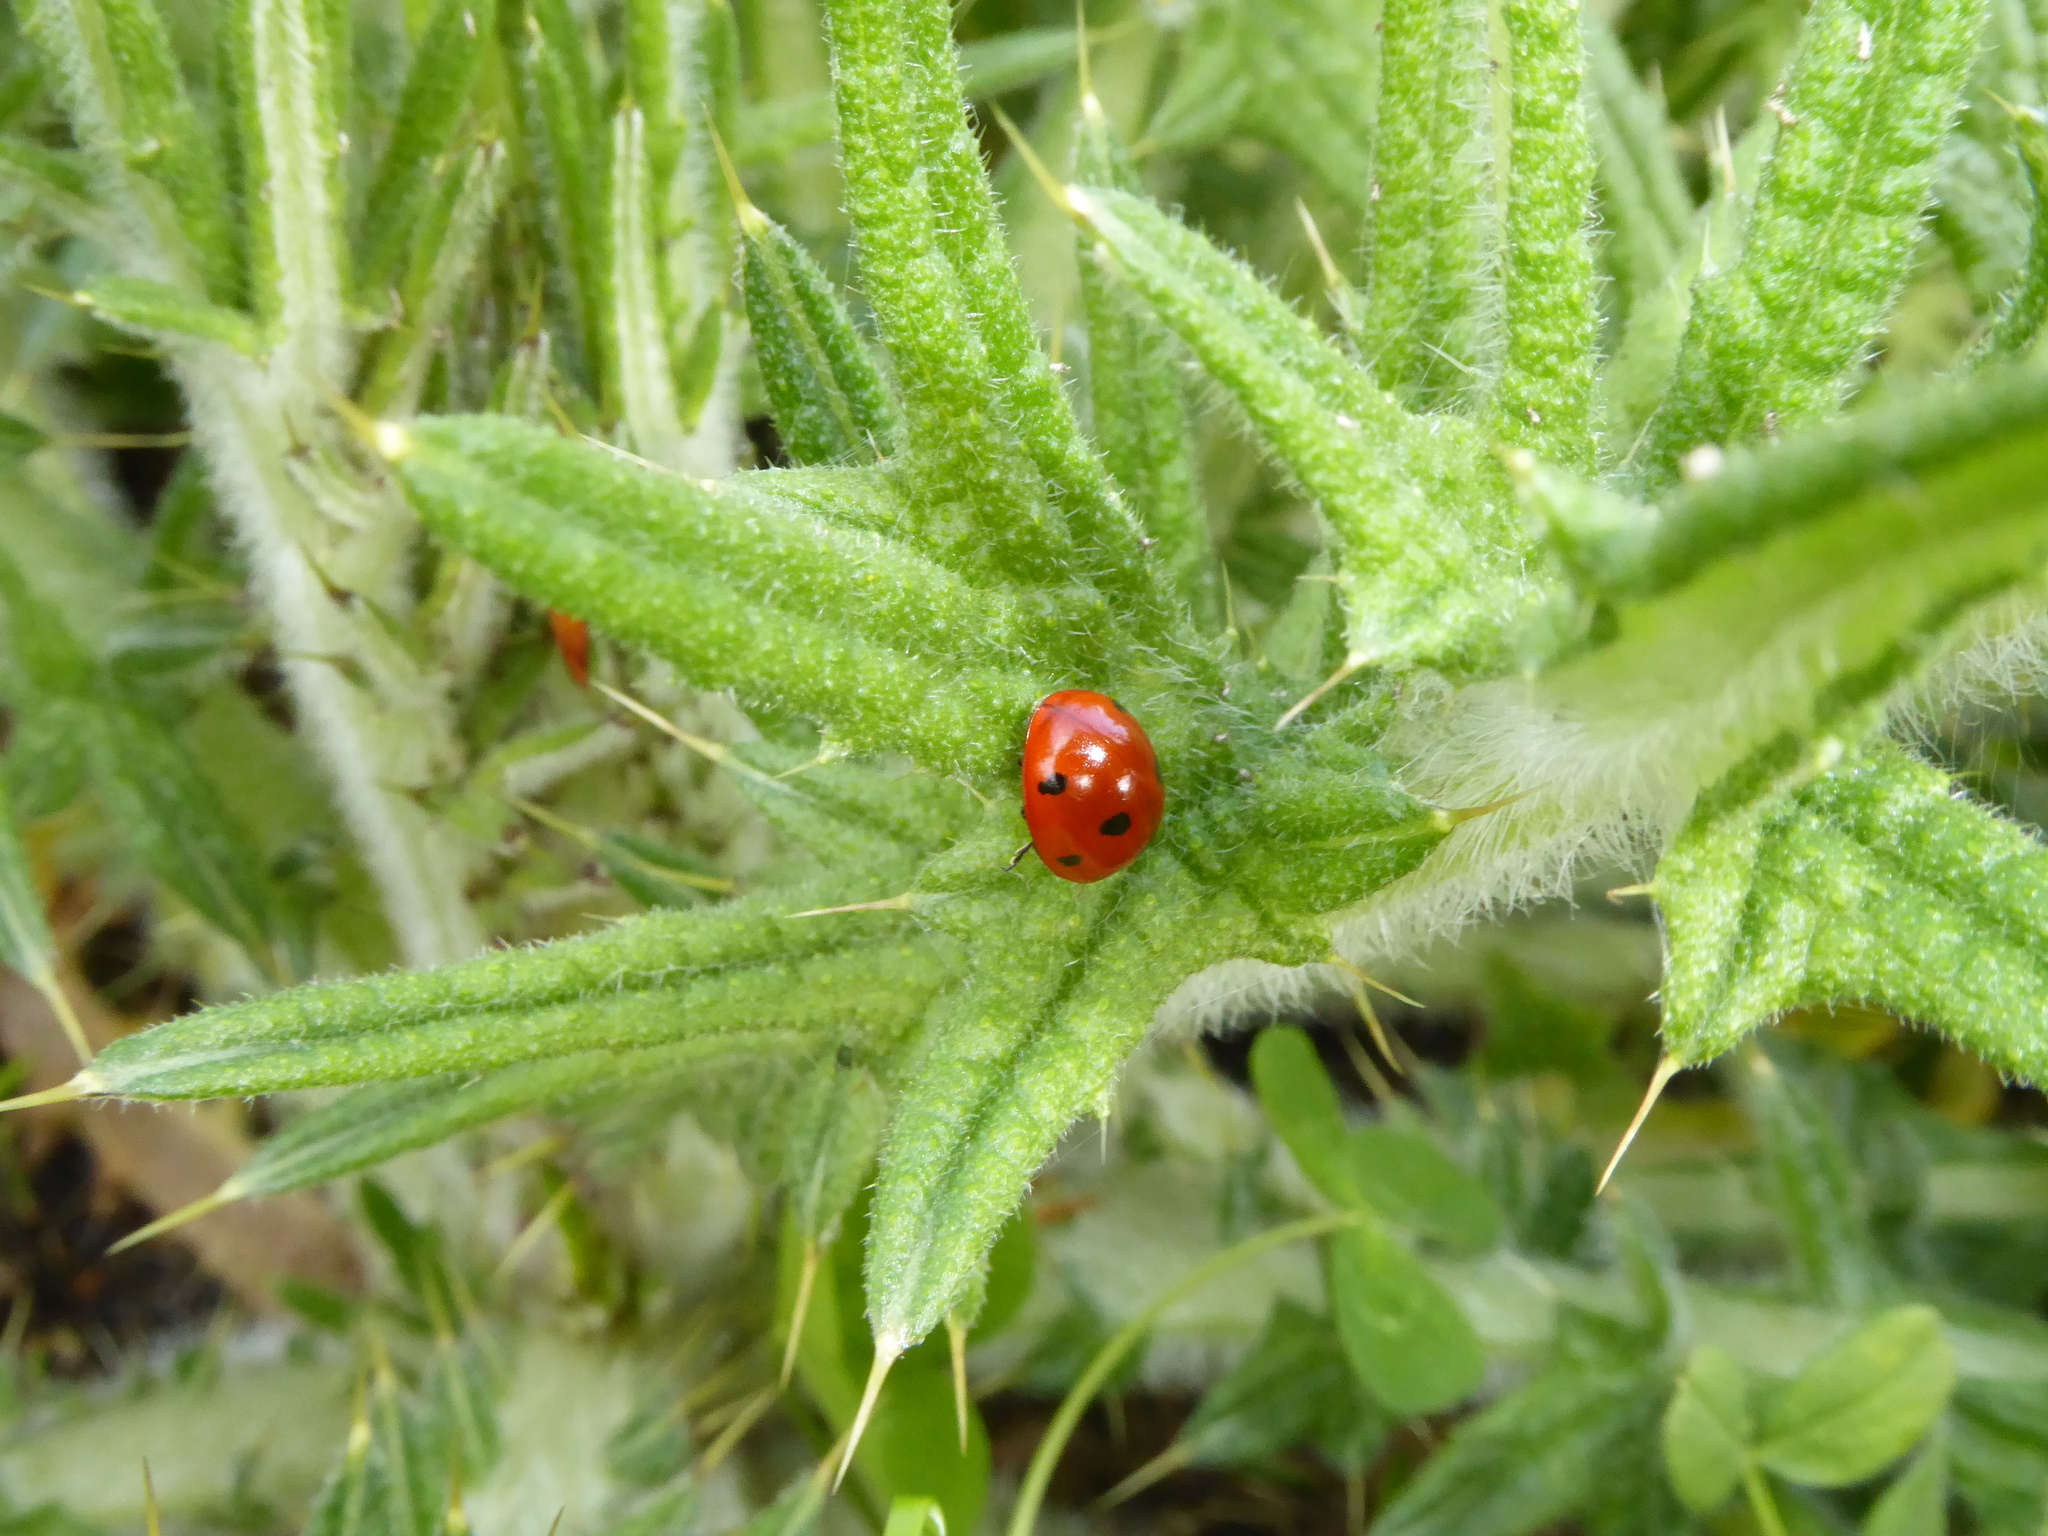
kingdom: Animalia
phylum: Arthropoda
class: Insecta
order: Coleoptera
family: Coccinellidae
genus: Coccinella
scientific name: Coccinella septempunctata
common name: Sevenspotted lady beetle
